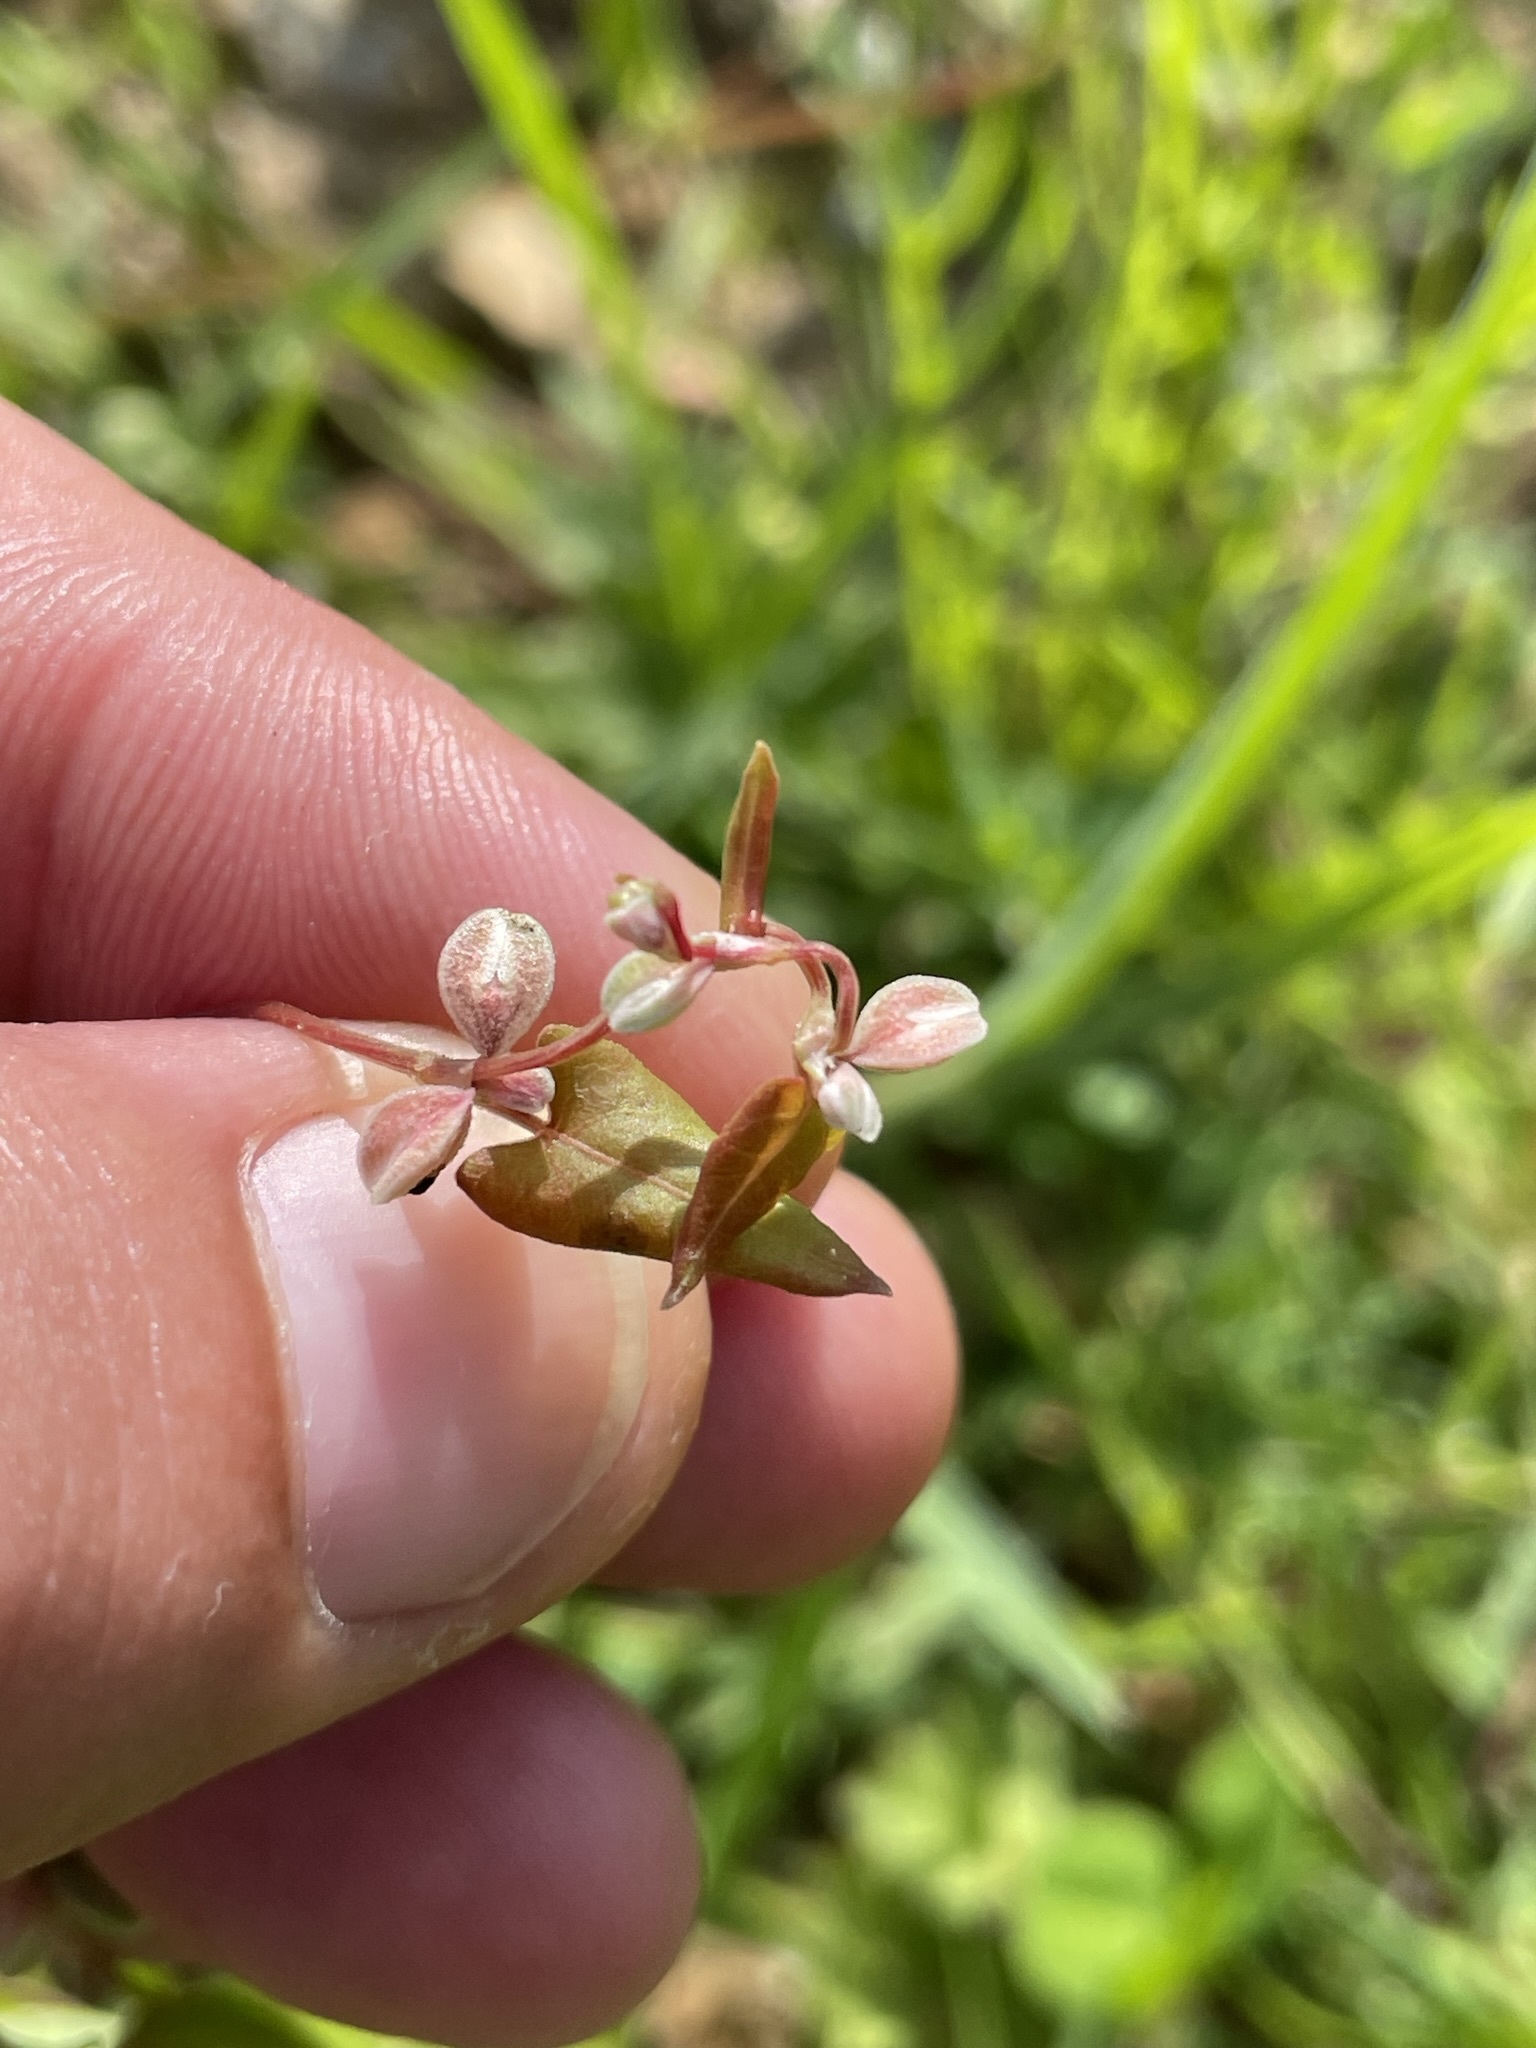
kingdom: Plantae
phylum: Tracheophyta
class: Magnoliopsida
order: Caryophyllales
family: Polygonaceae
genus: Fallopia
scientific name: Fallopia convolvulus
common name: Black bindweed
